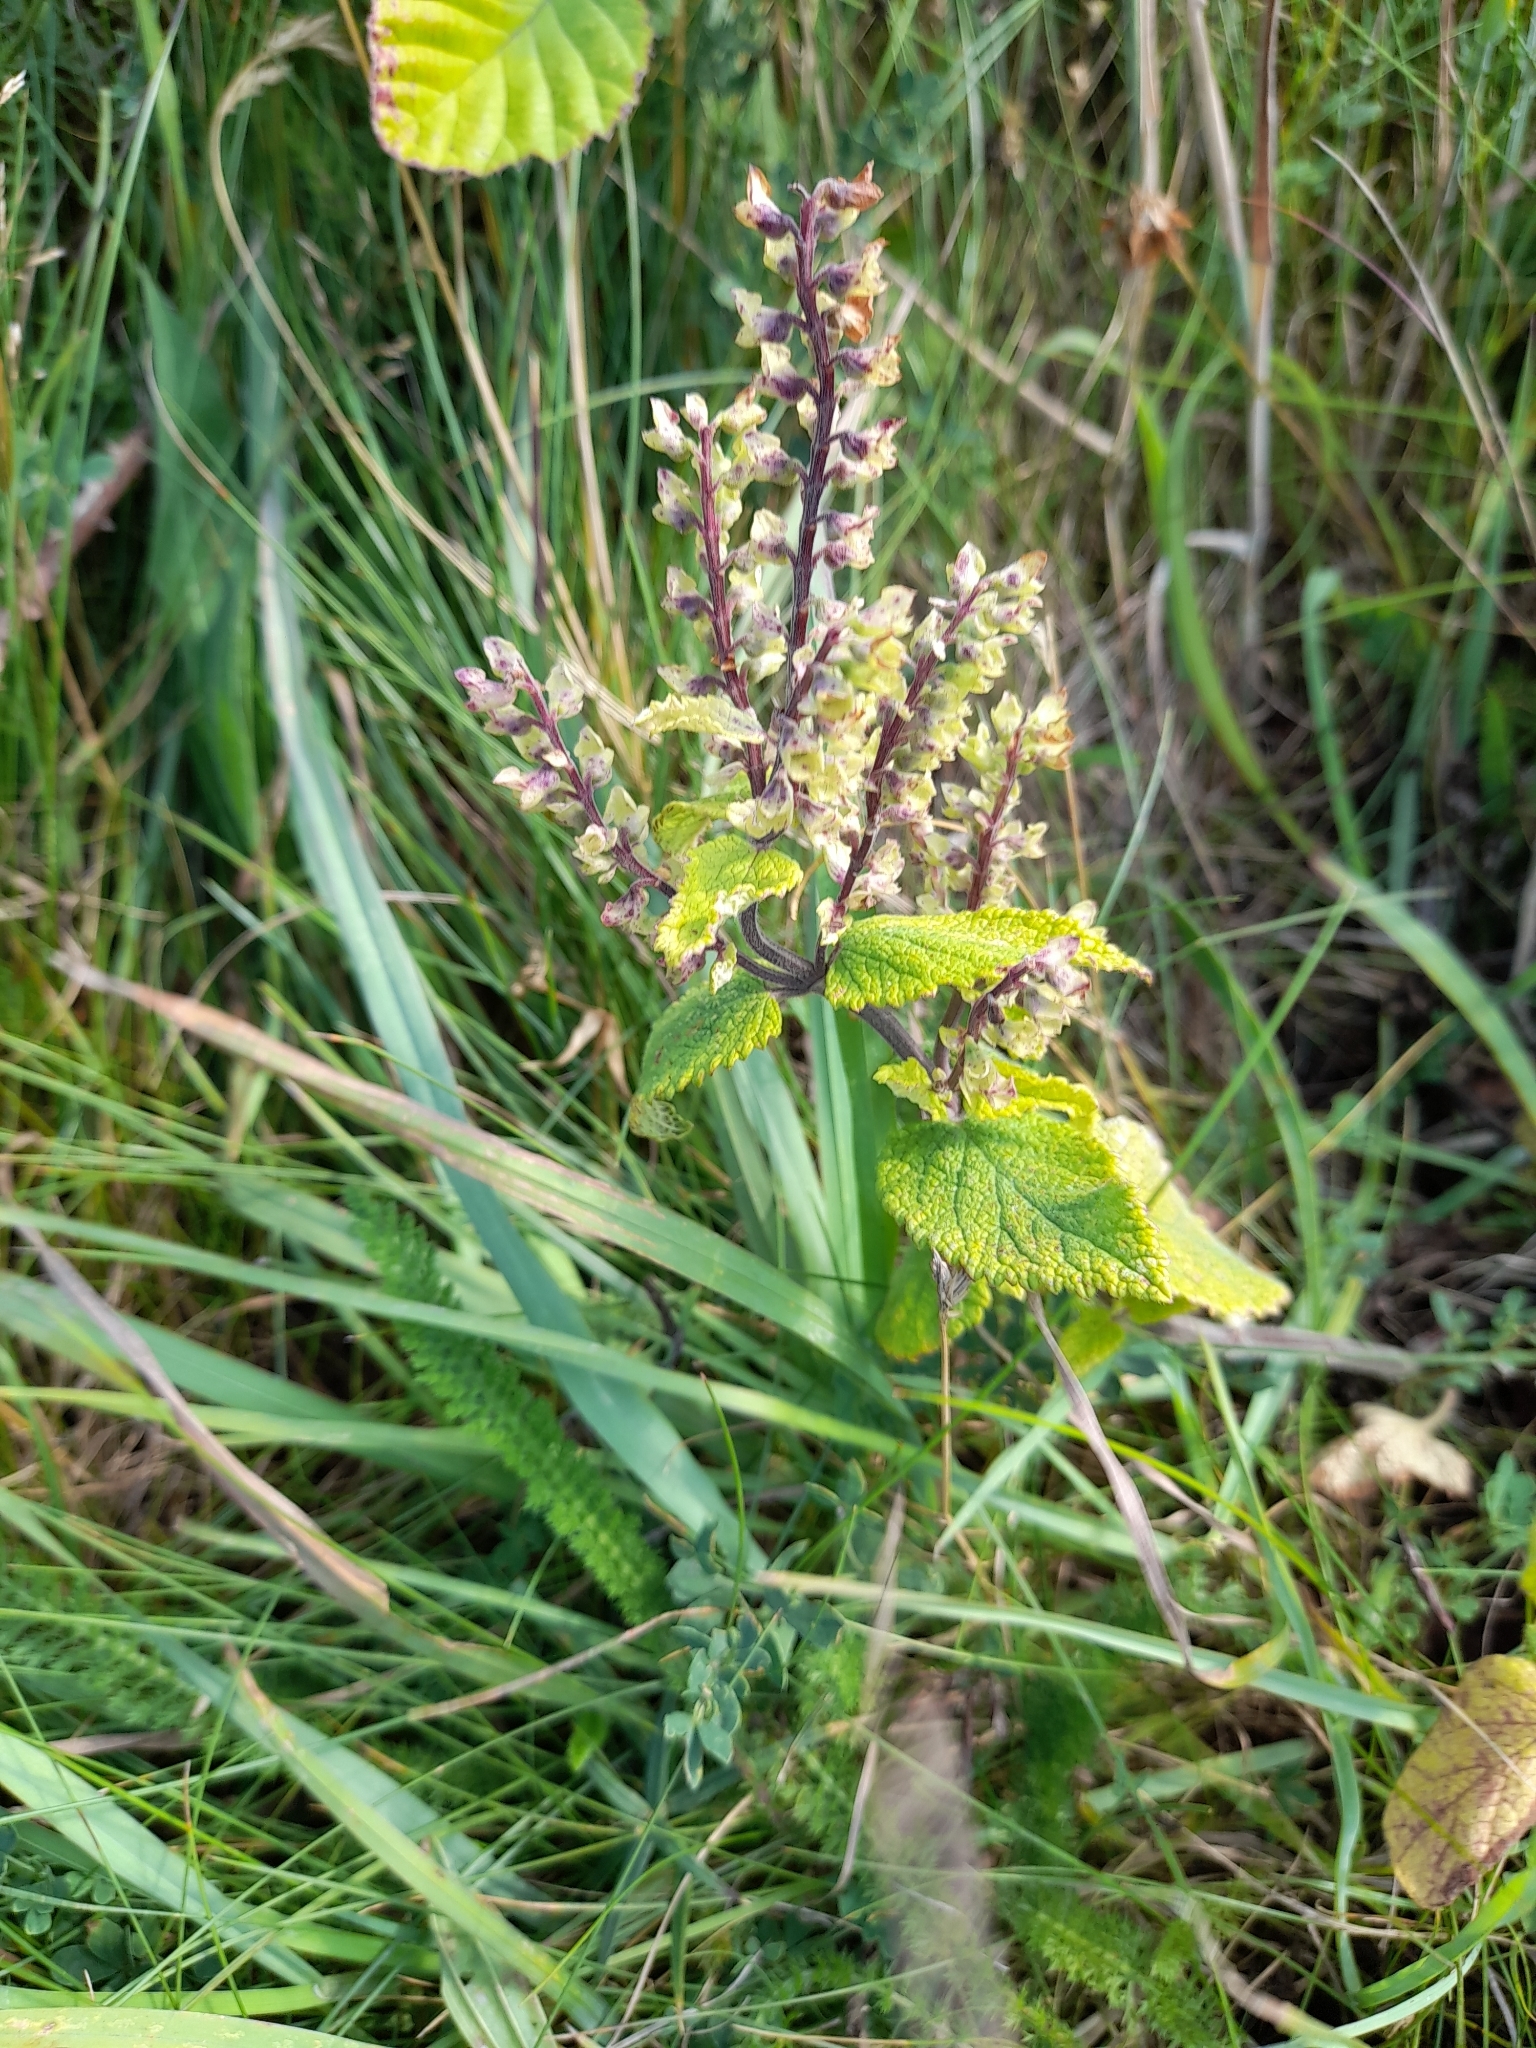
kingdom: Plantae
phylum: Tracheophyta
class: Magnoliopsida
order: Lamiales
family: Lamiaceae
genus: Teucrium
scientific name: Teucrium scorodonia
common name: Woodland germander
